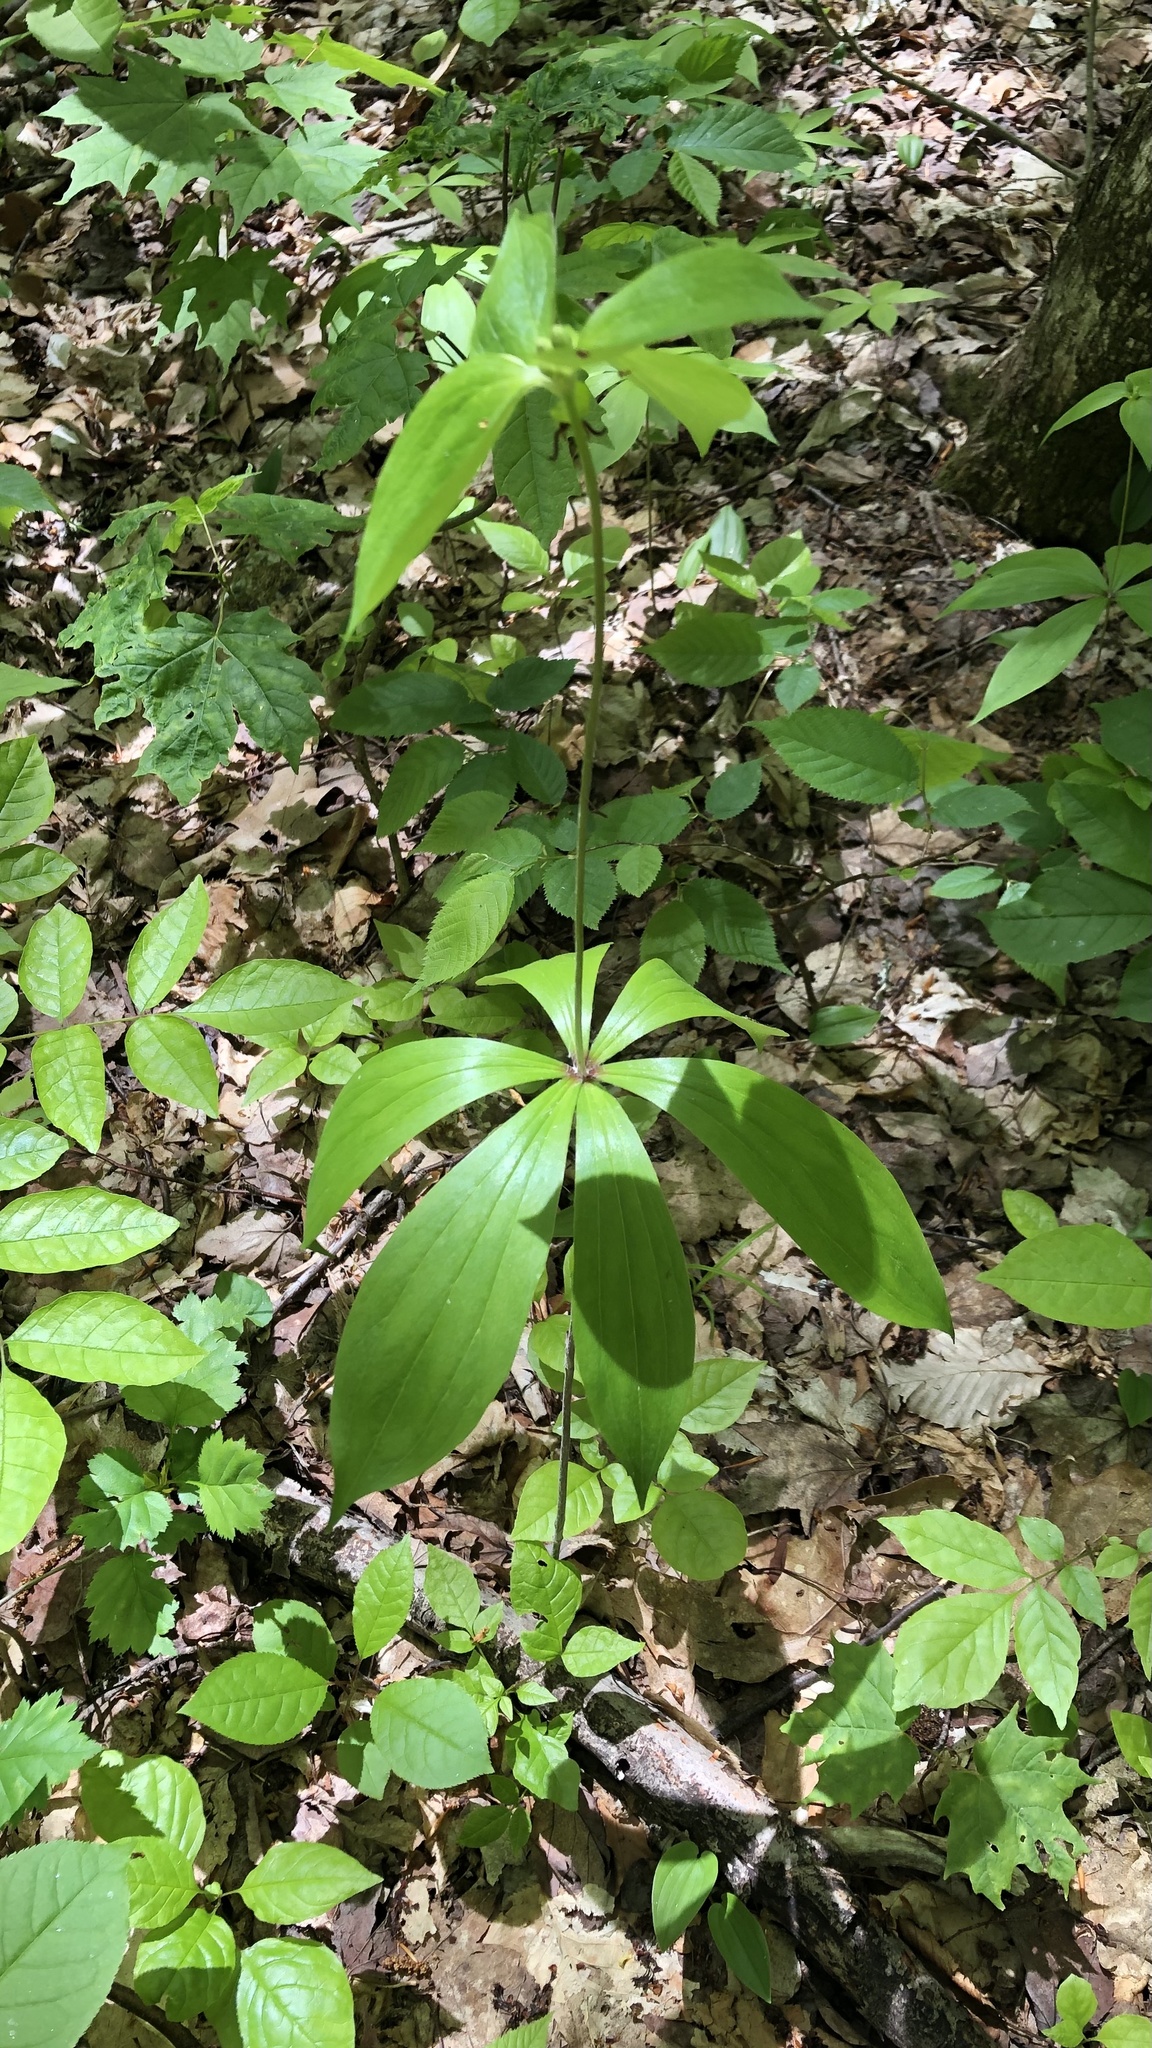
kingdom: Plantae
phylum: Tracheophyta
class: Liliopsida
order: Liliales
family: Liliaceae
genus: Medeola
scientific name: Medeola virginiana
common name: Indian cucumber-root
